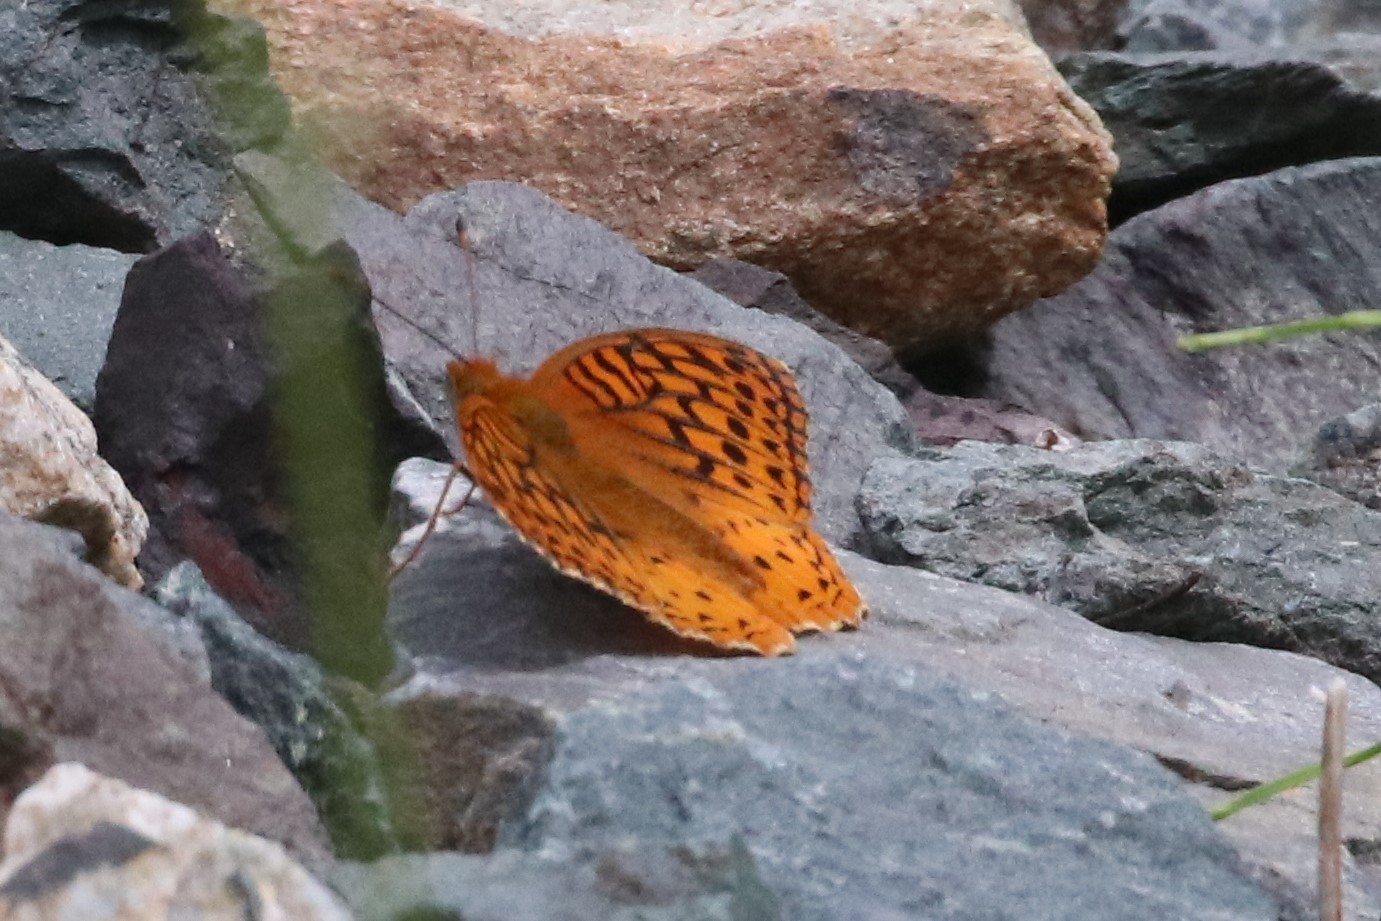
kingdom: Animalia
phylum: Arthropoda
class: Insecta
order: Lepidoptera
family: Nymphalidae
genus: Speyeria
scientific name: Speyeria cybele
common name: Great spangled fritillary
